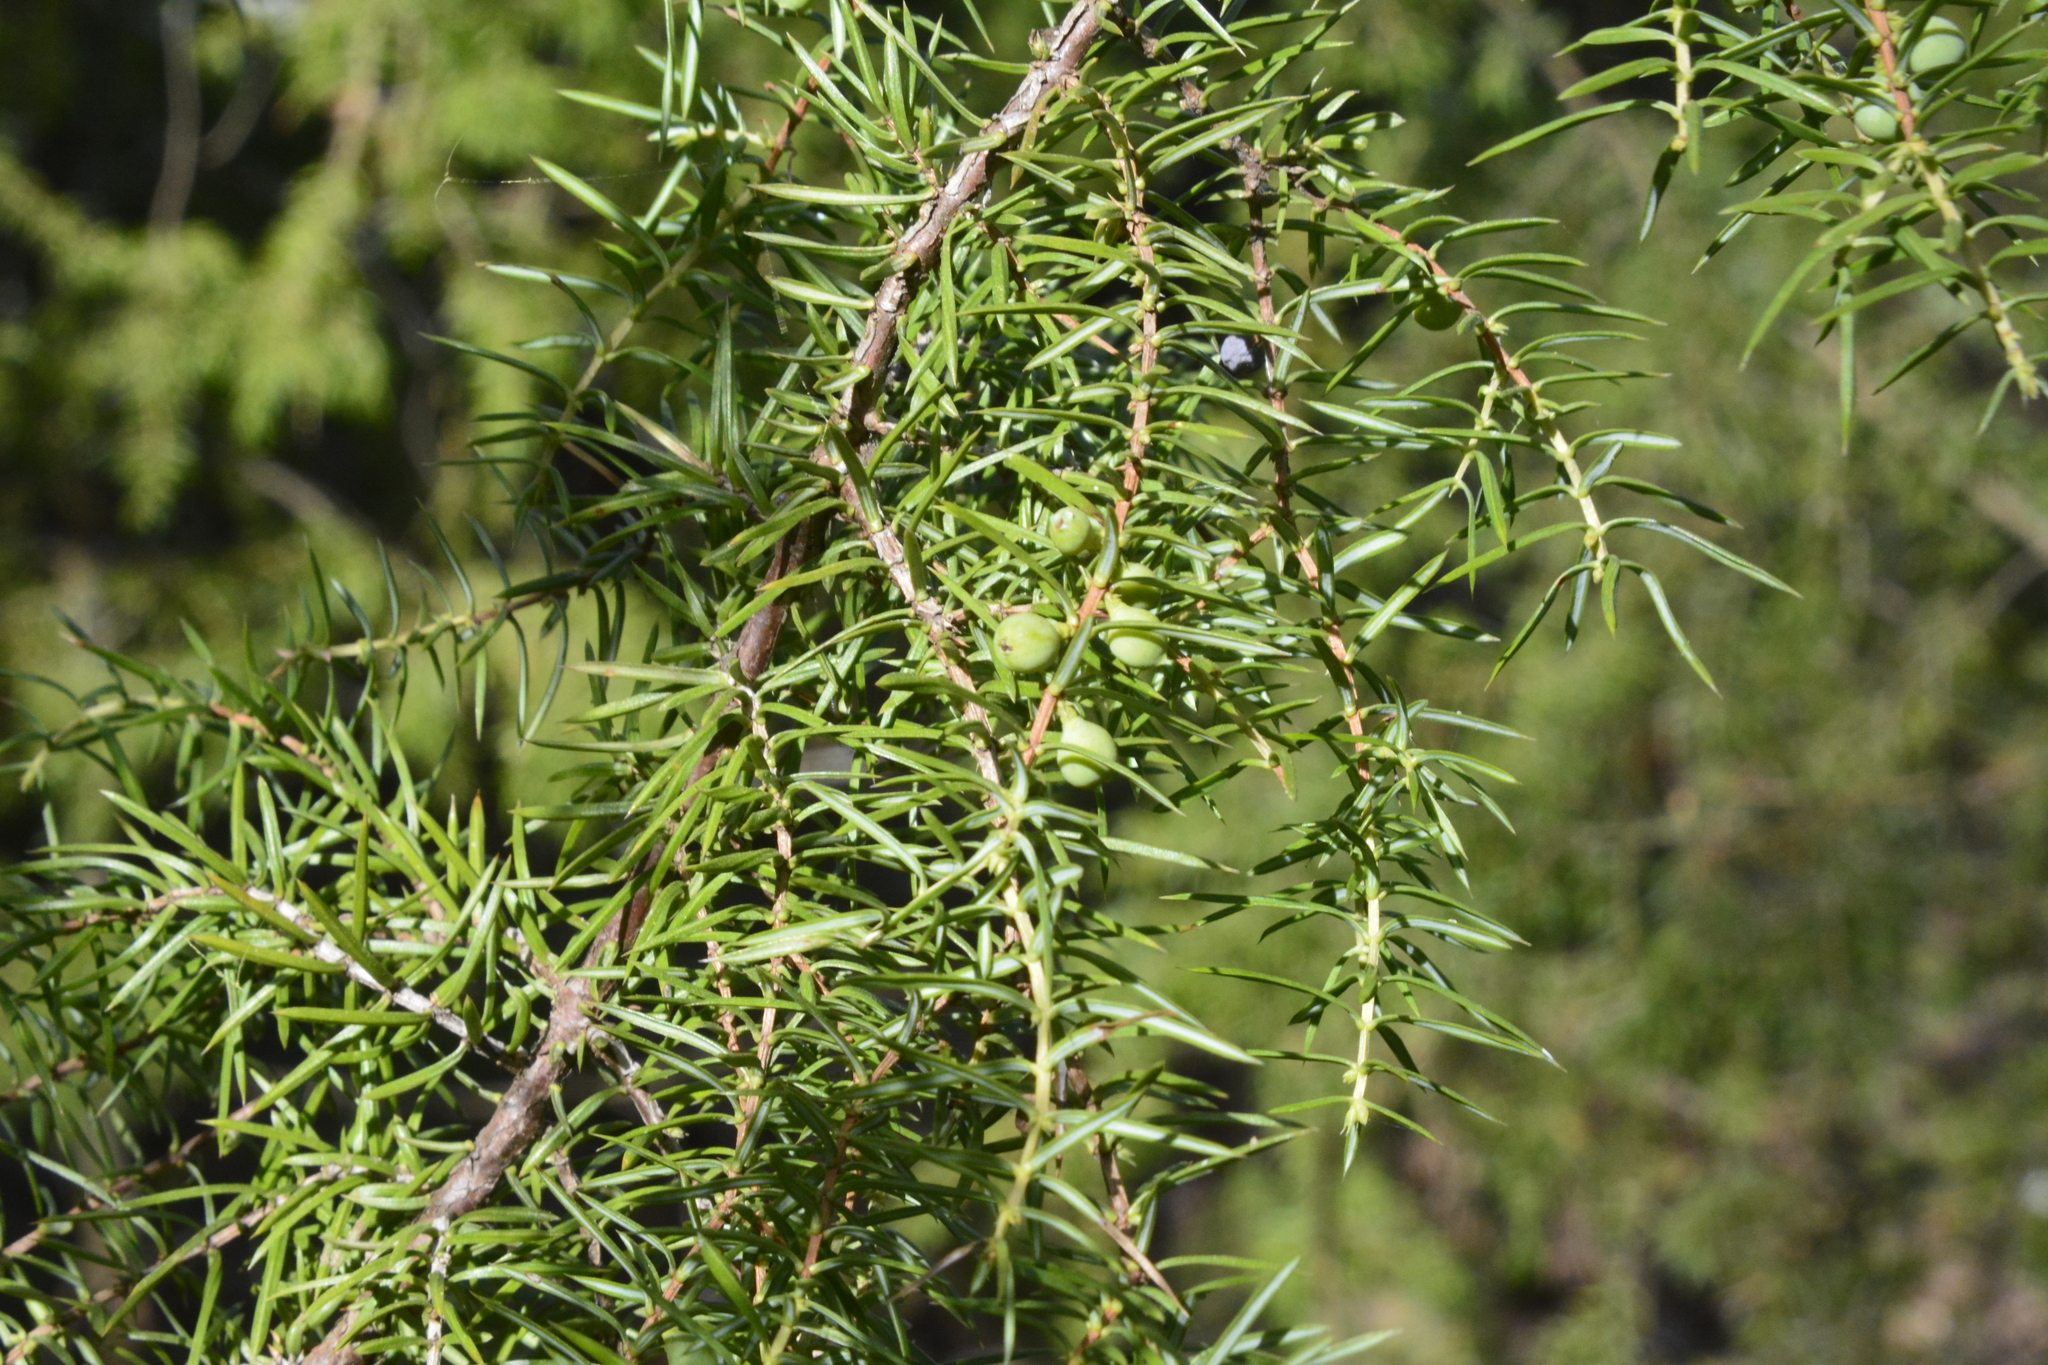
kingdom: Plantae
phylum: Tracheophyta
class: Pinopsida
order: Pinales
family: Cupressaceae
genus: Juniperus
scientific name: Juniperus communis
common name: Common juniper
